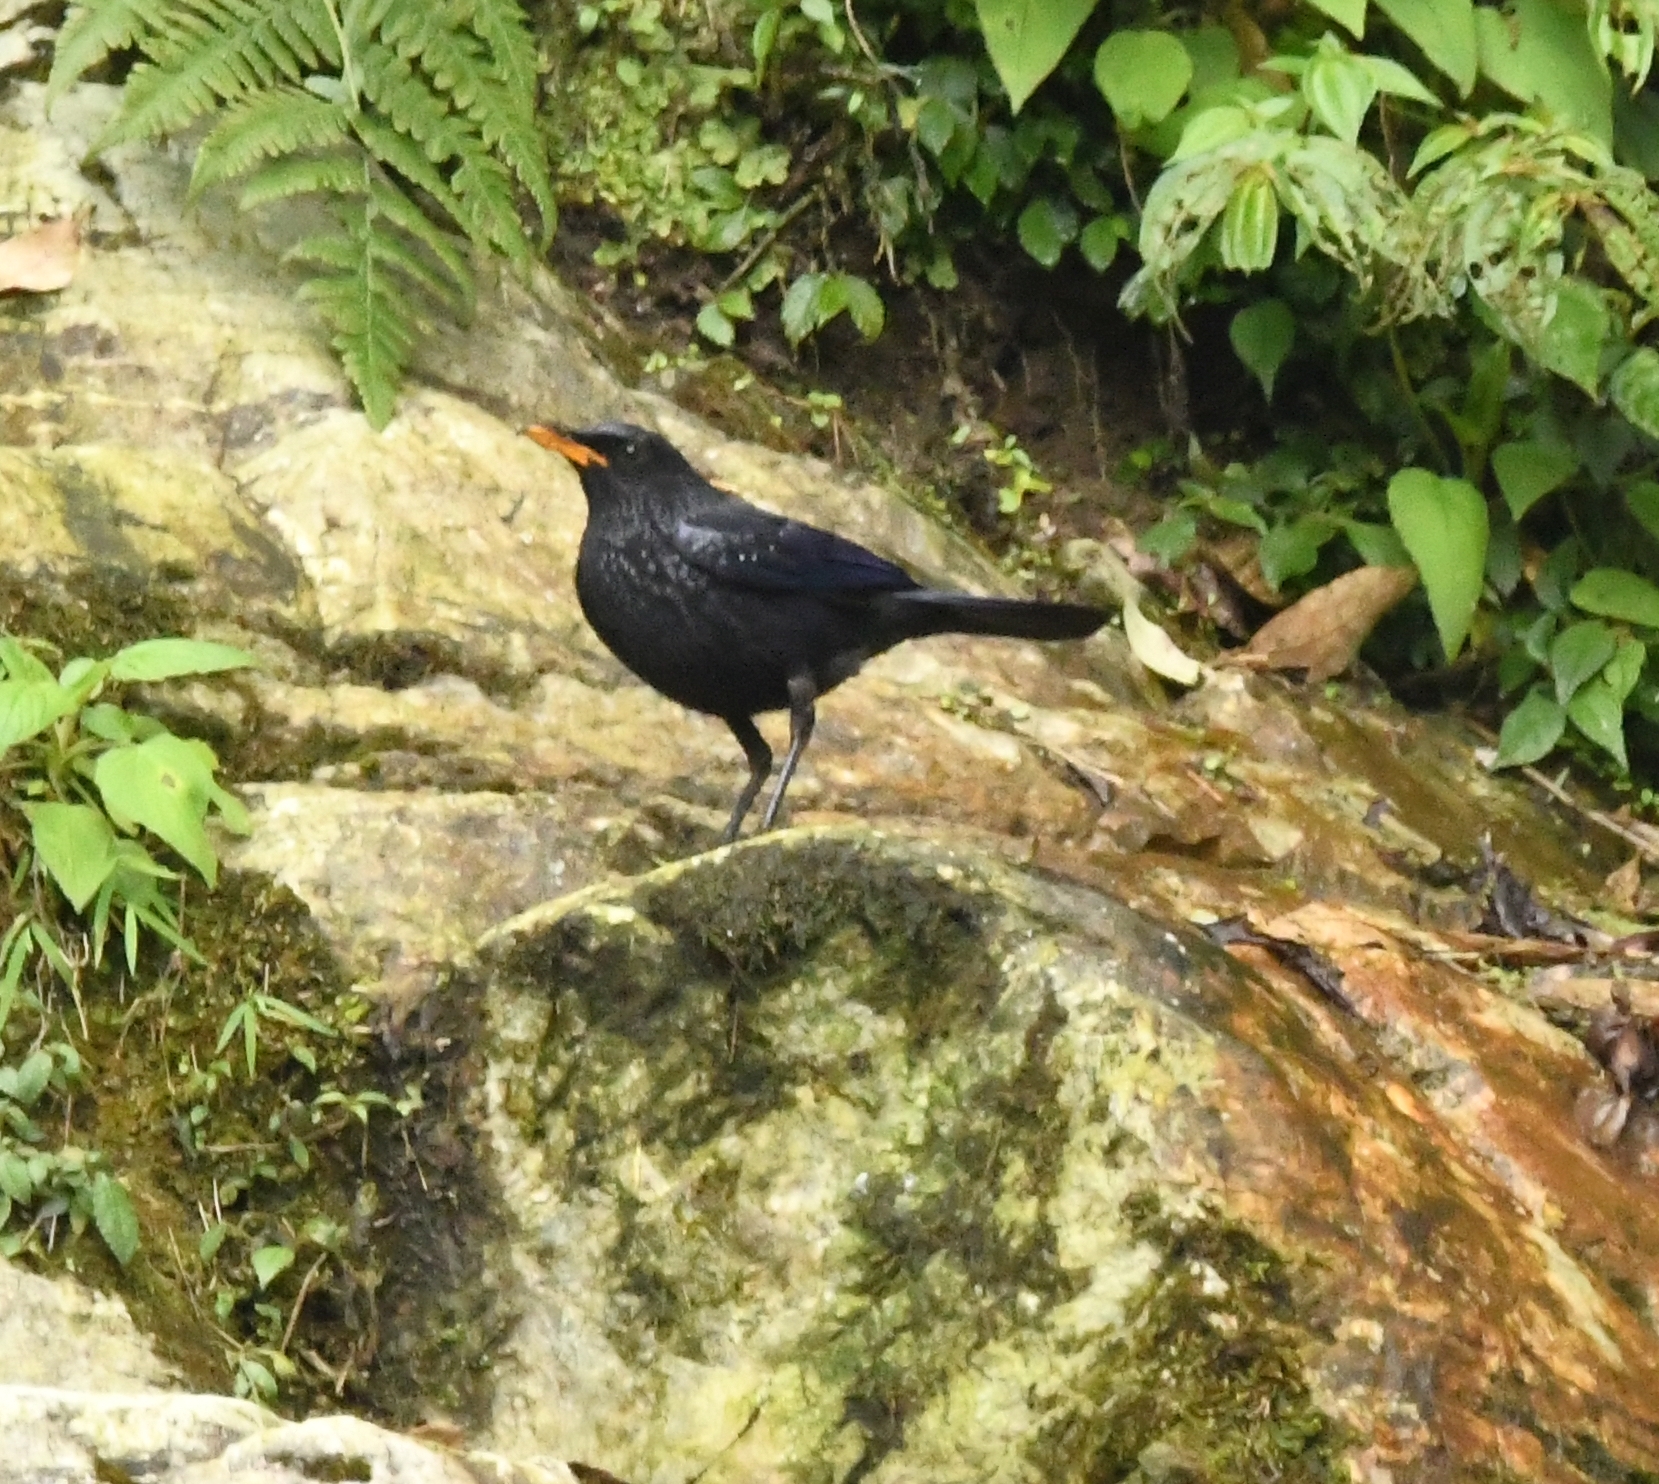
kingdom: Animalia
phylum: Chordata
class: Aves
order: Passeriformes
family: Muscicapidae
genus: Myophonus
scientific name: Myophonus caeruleus
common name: Blue whistling-thrush
